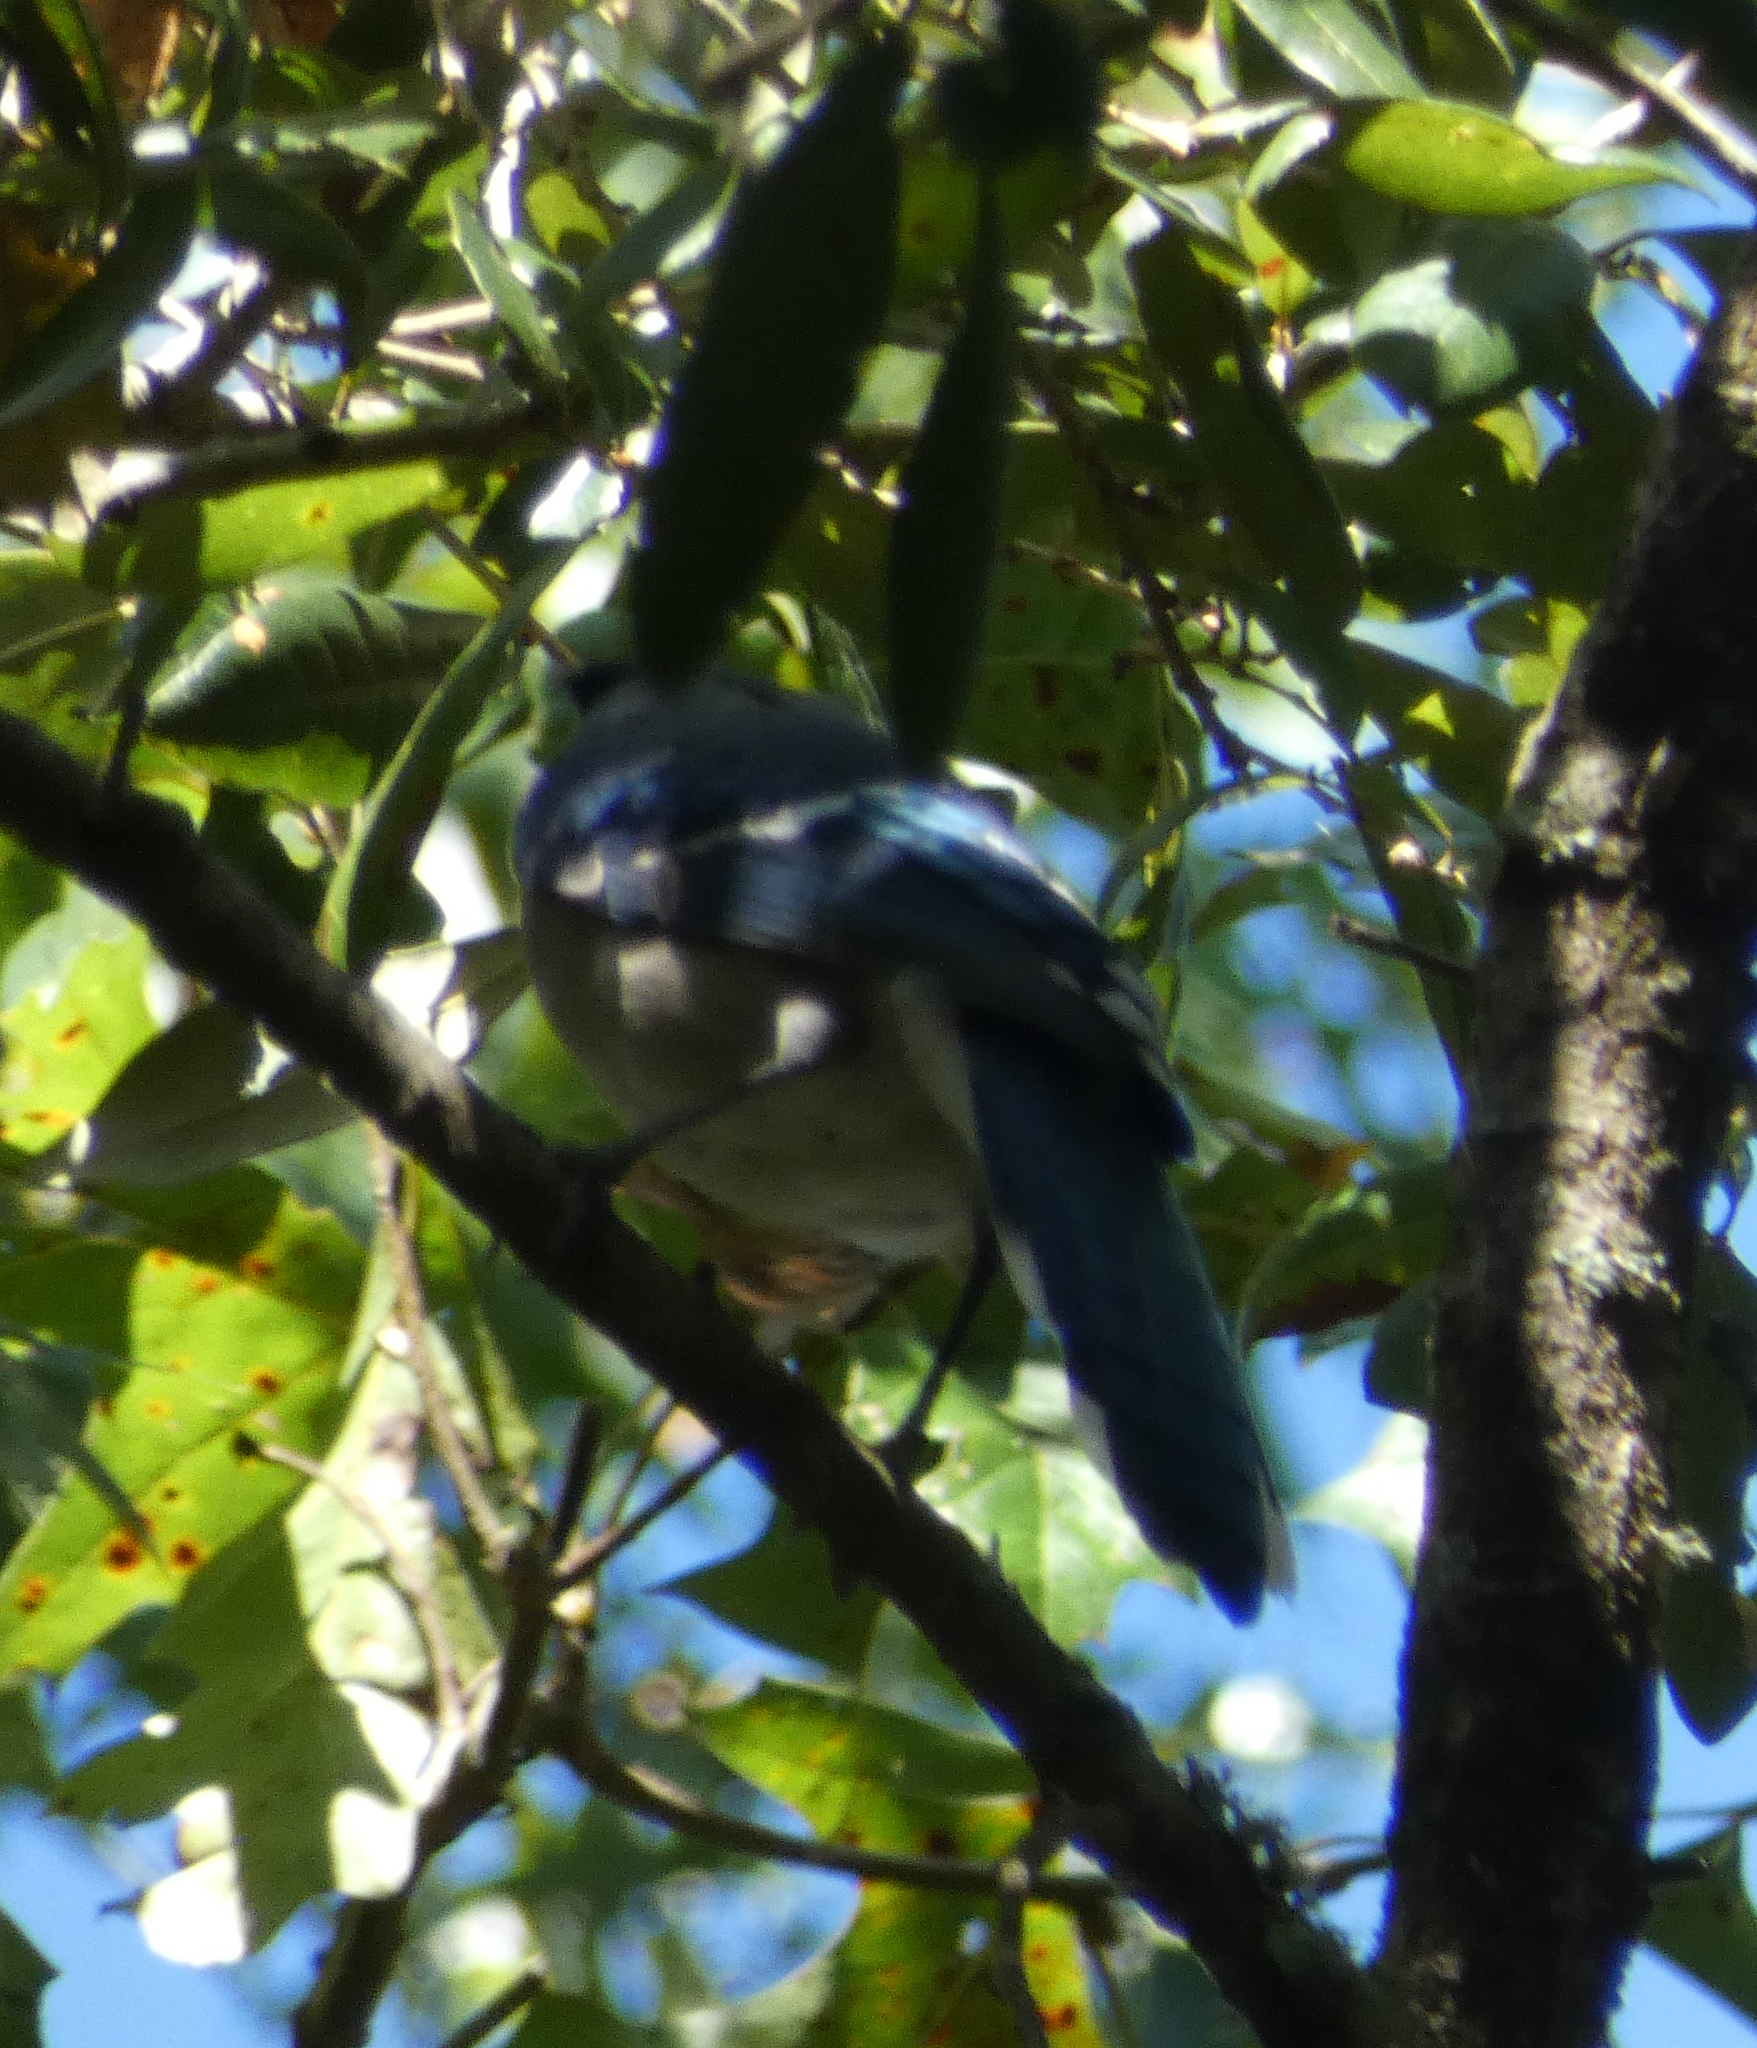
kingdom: Animalia
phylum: Chordata
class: Aves
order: Passeriformes
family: Corvidae
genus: Cyanocitta
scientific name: Cyanocitta cristata
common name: Blue jay
